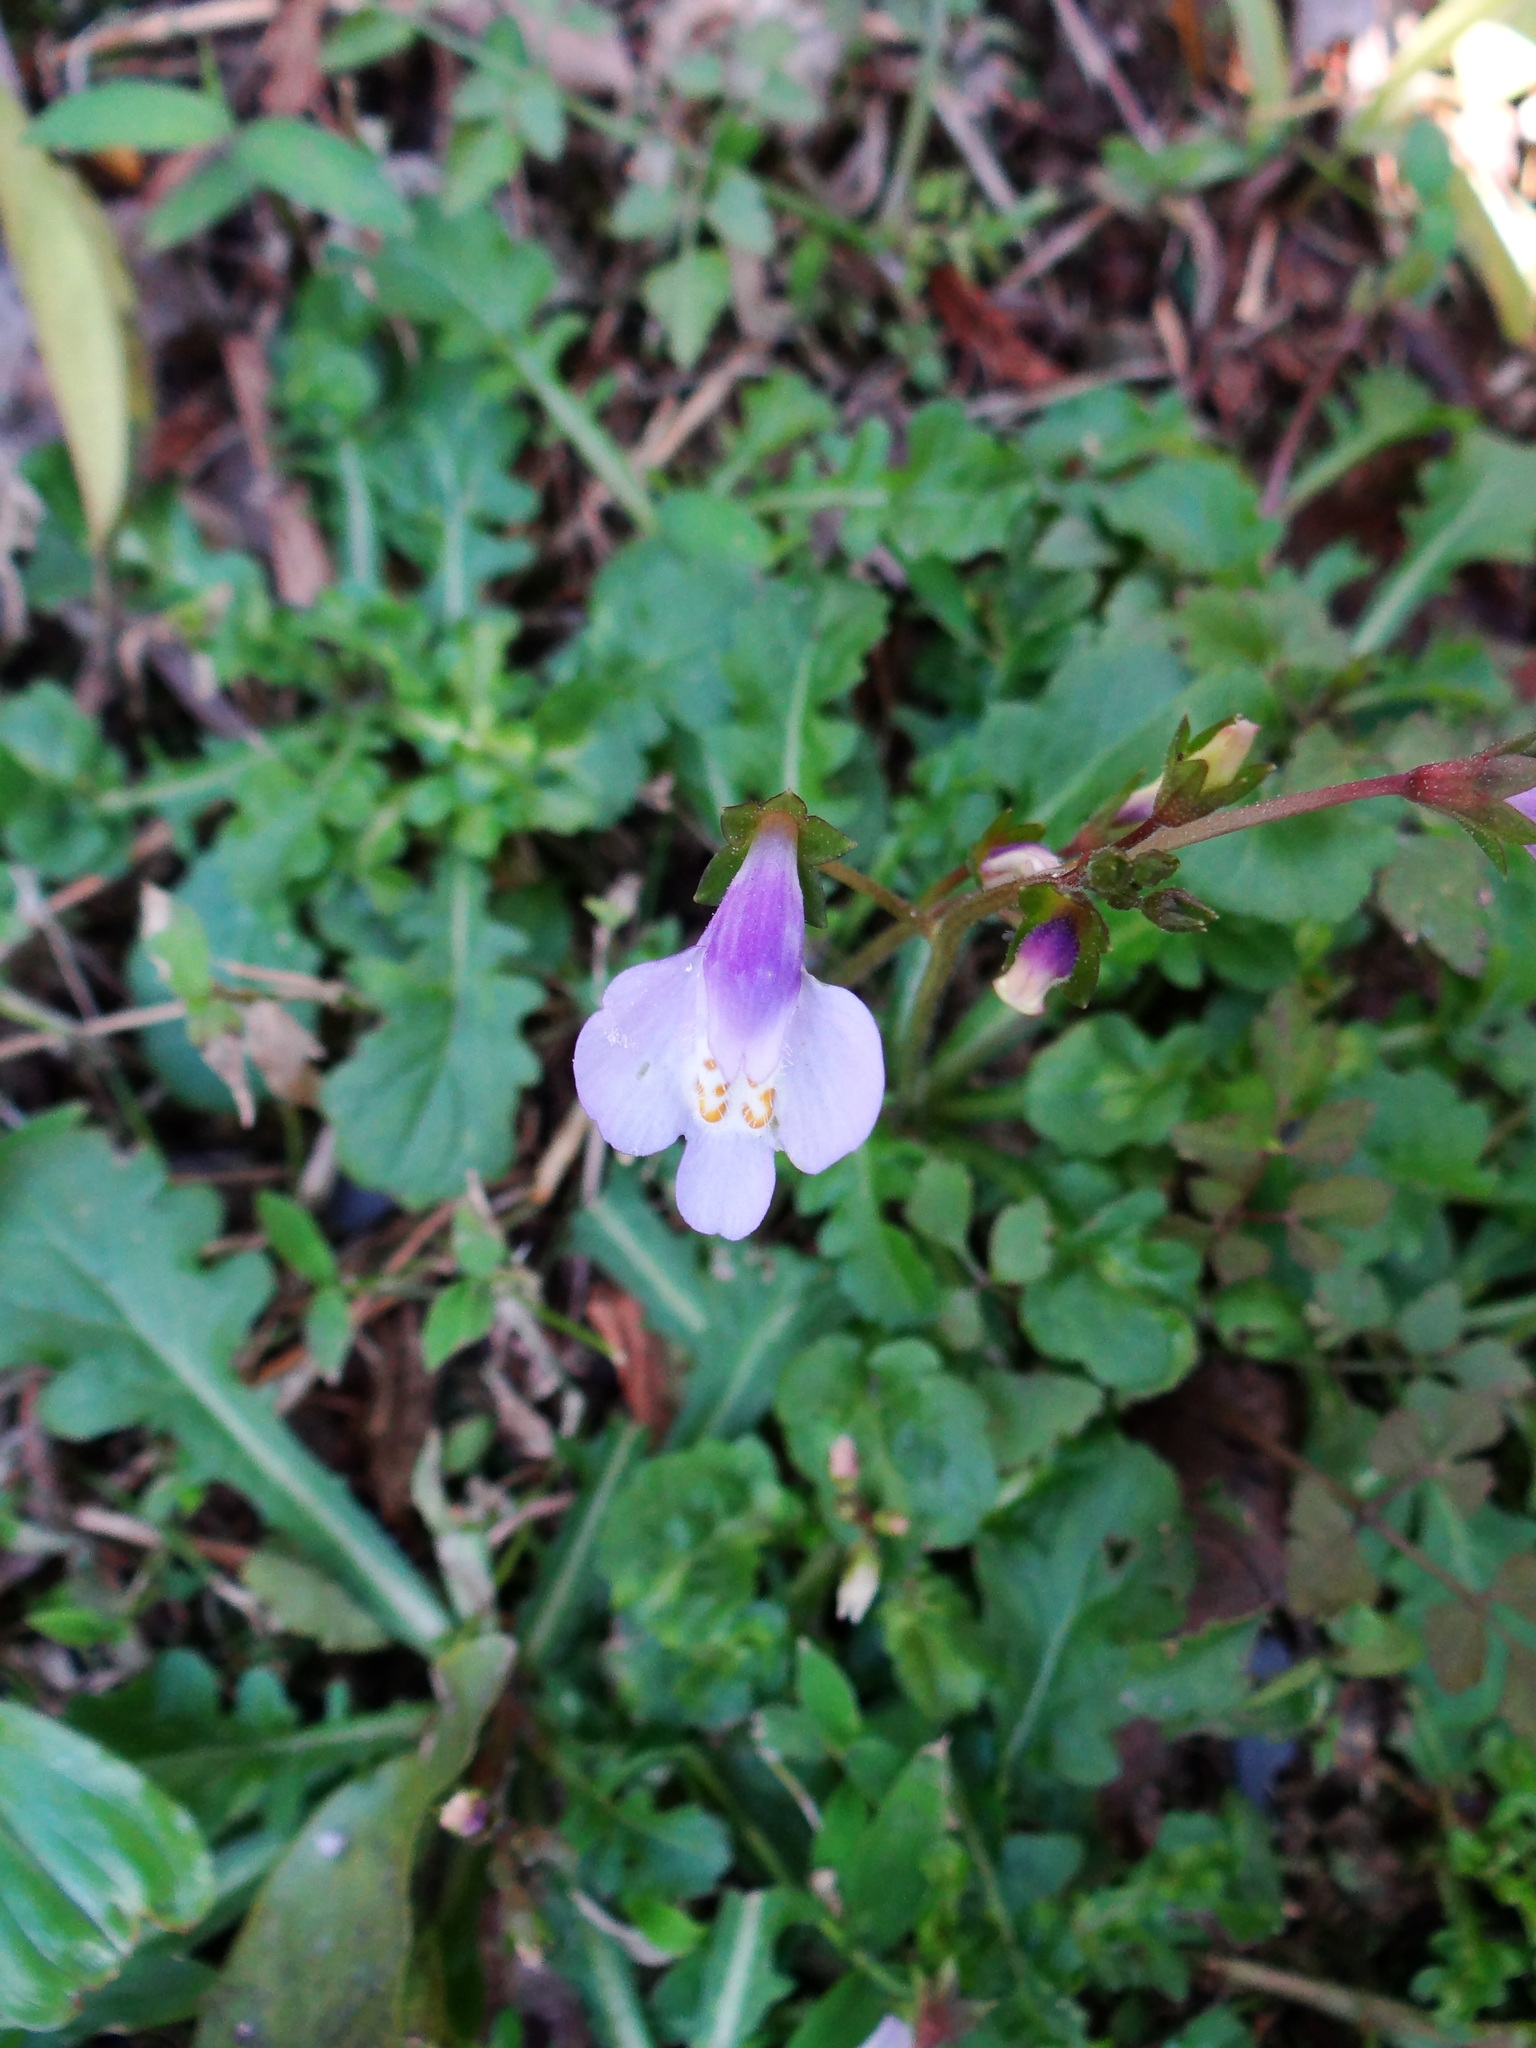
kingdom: Plantae
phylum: Tracheophyta
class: Magnoliopsida
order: Lamiales
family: Mazaceae
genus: Mazus
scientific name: Mazus fauriei
